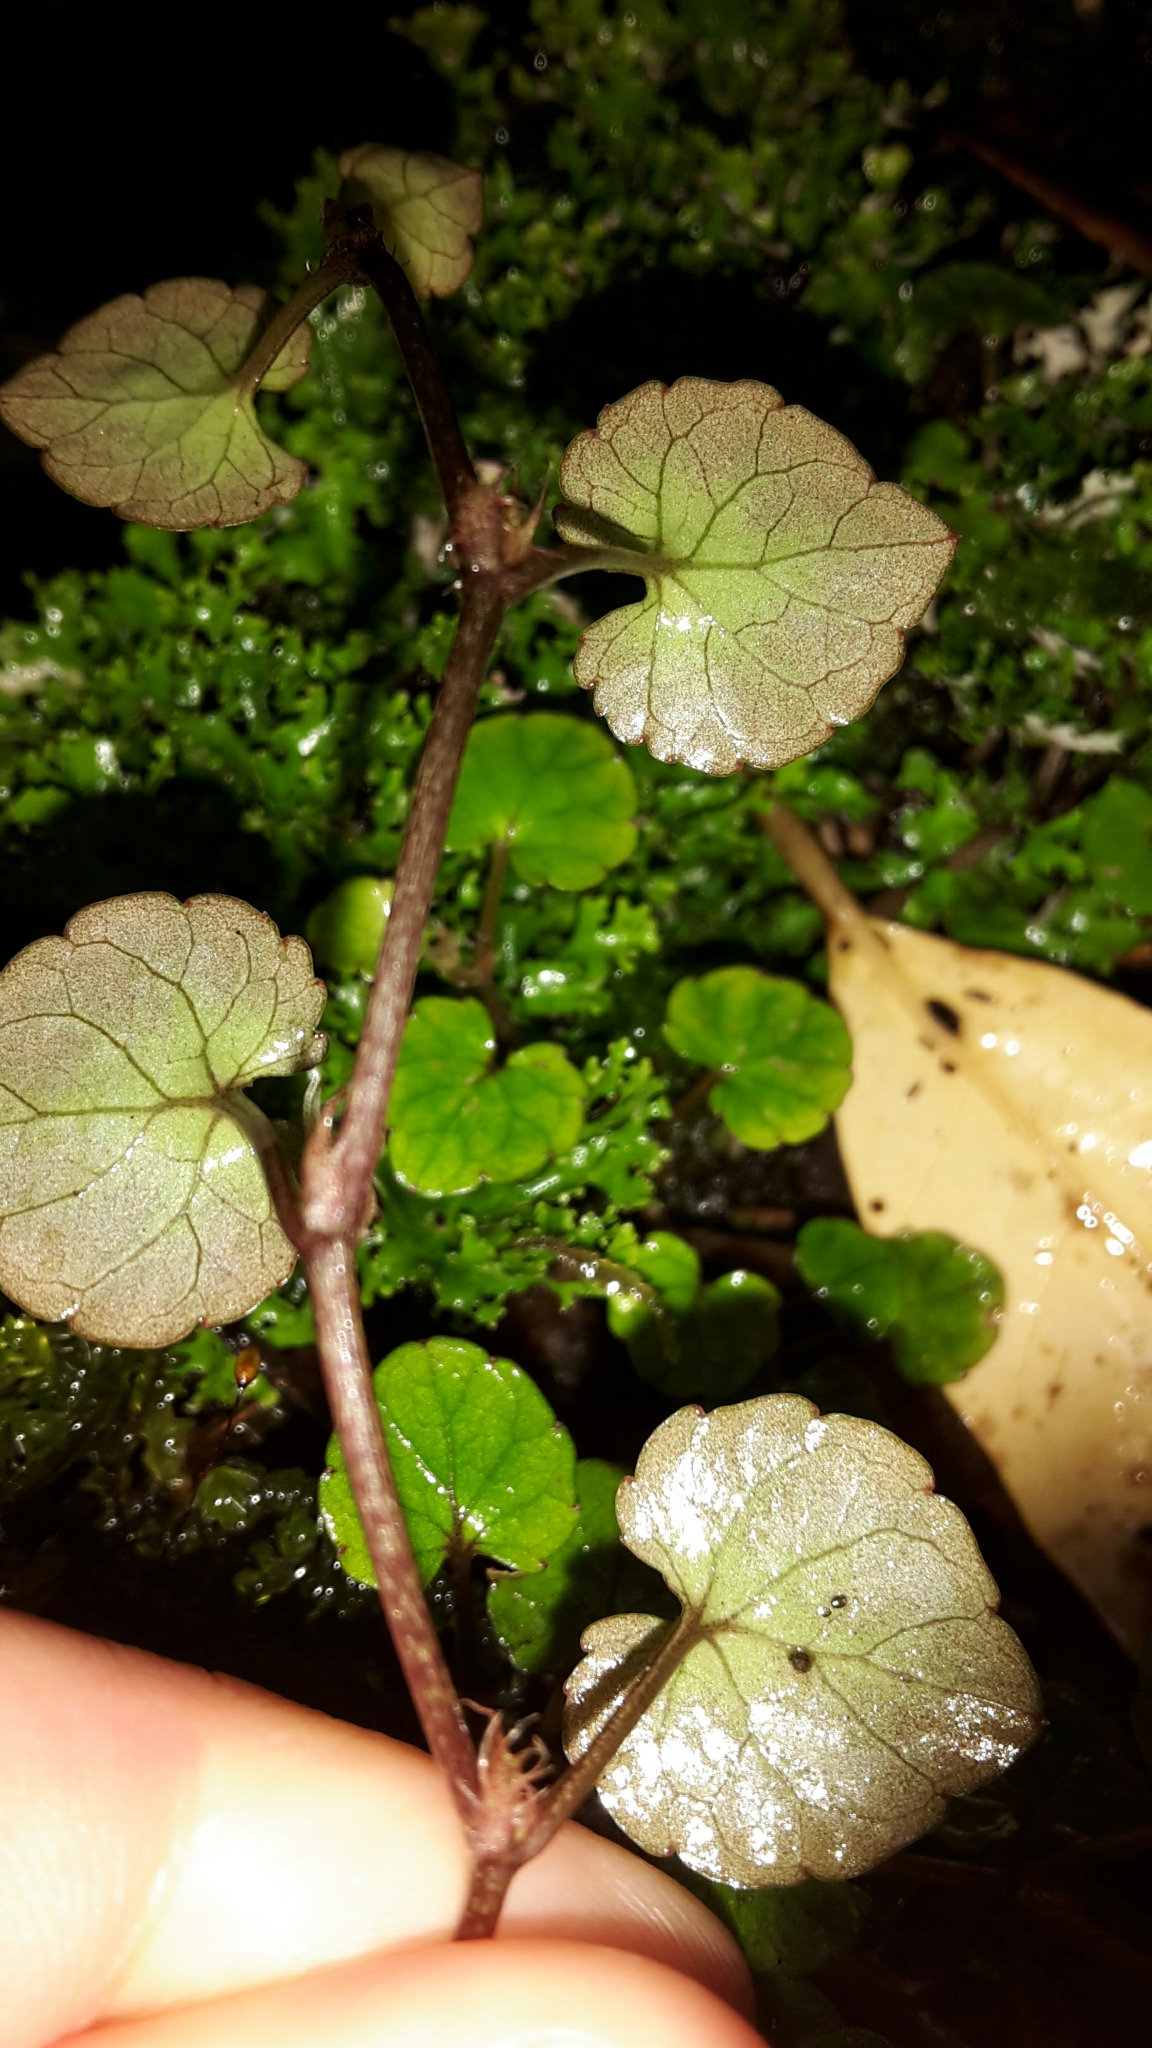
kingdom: Plantae
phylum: Tracheophyta
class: Magnoliopsida
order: Malpighiales
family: Violaceae
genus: Viola
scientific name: Viola filicaulis
